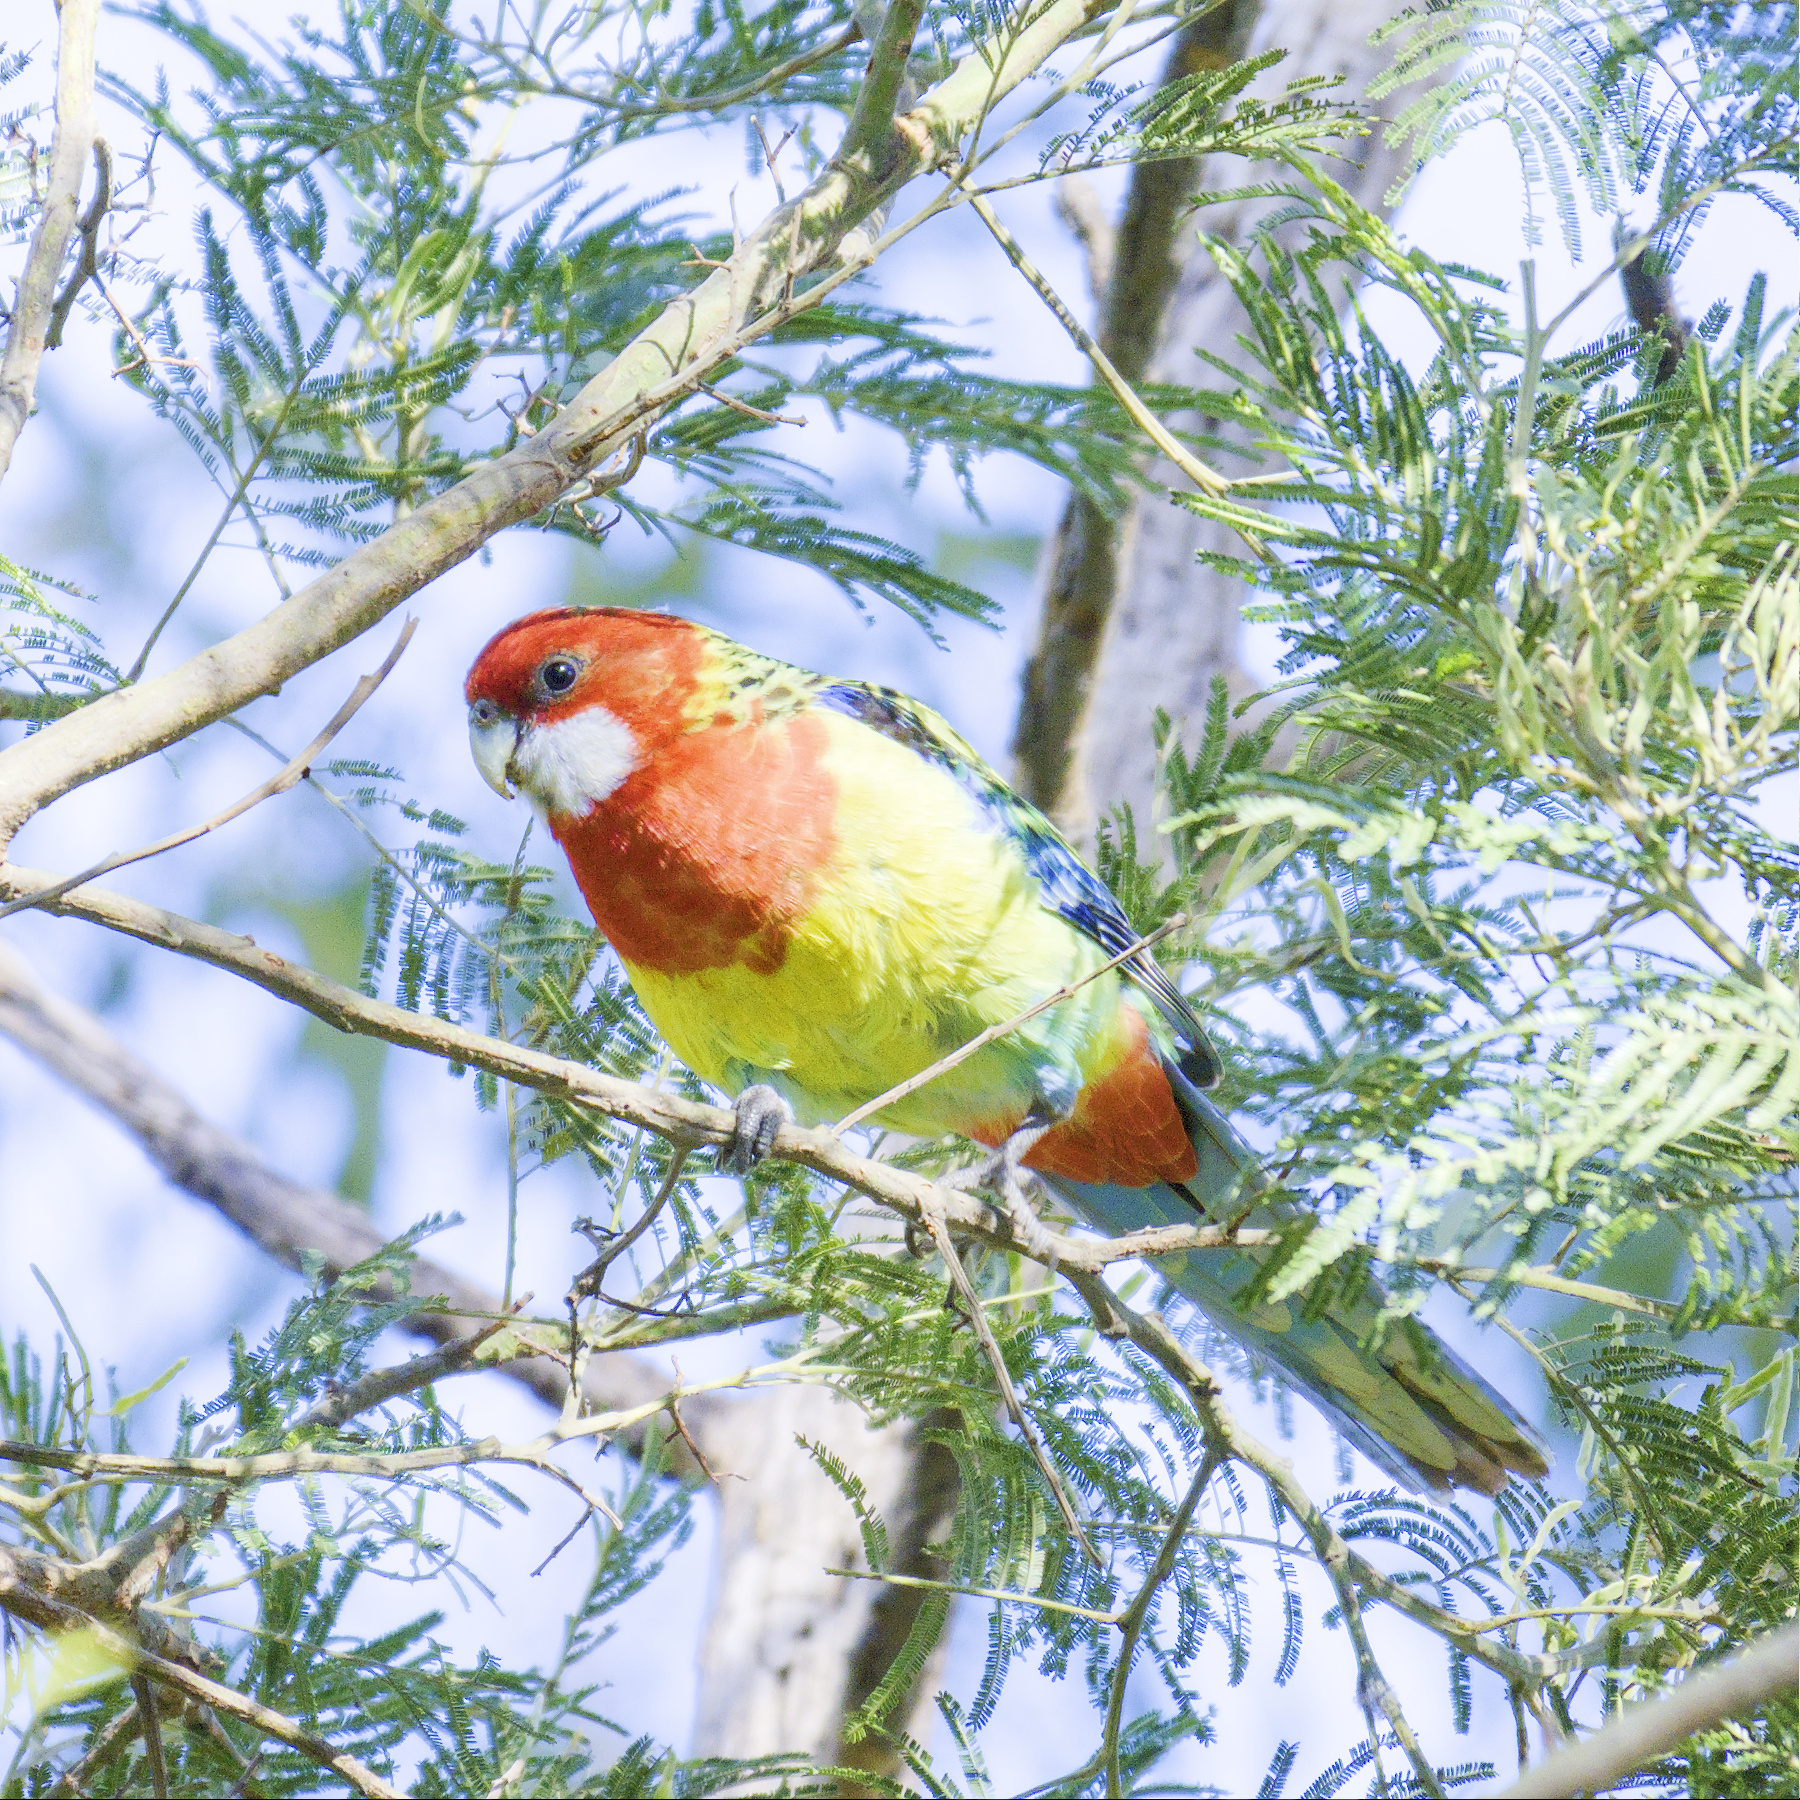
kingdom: Animalia
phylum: Chordata
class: Aves
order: Psittaciformes
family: Psittacidae
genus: Platycercus
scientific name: Platycercus eximius
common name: Eastern rosella
